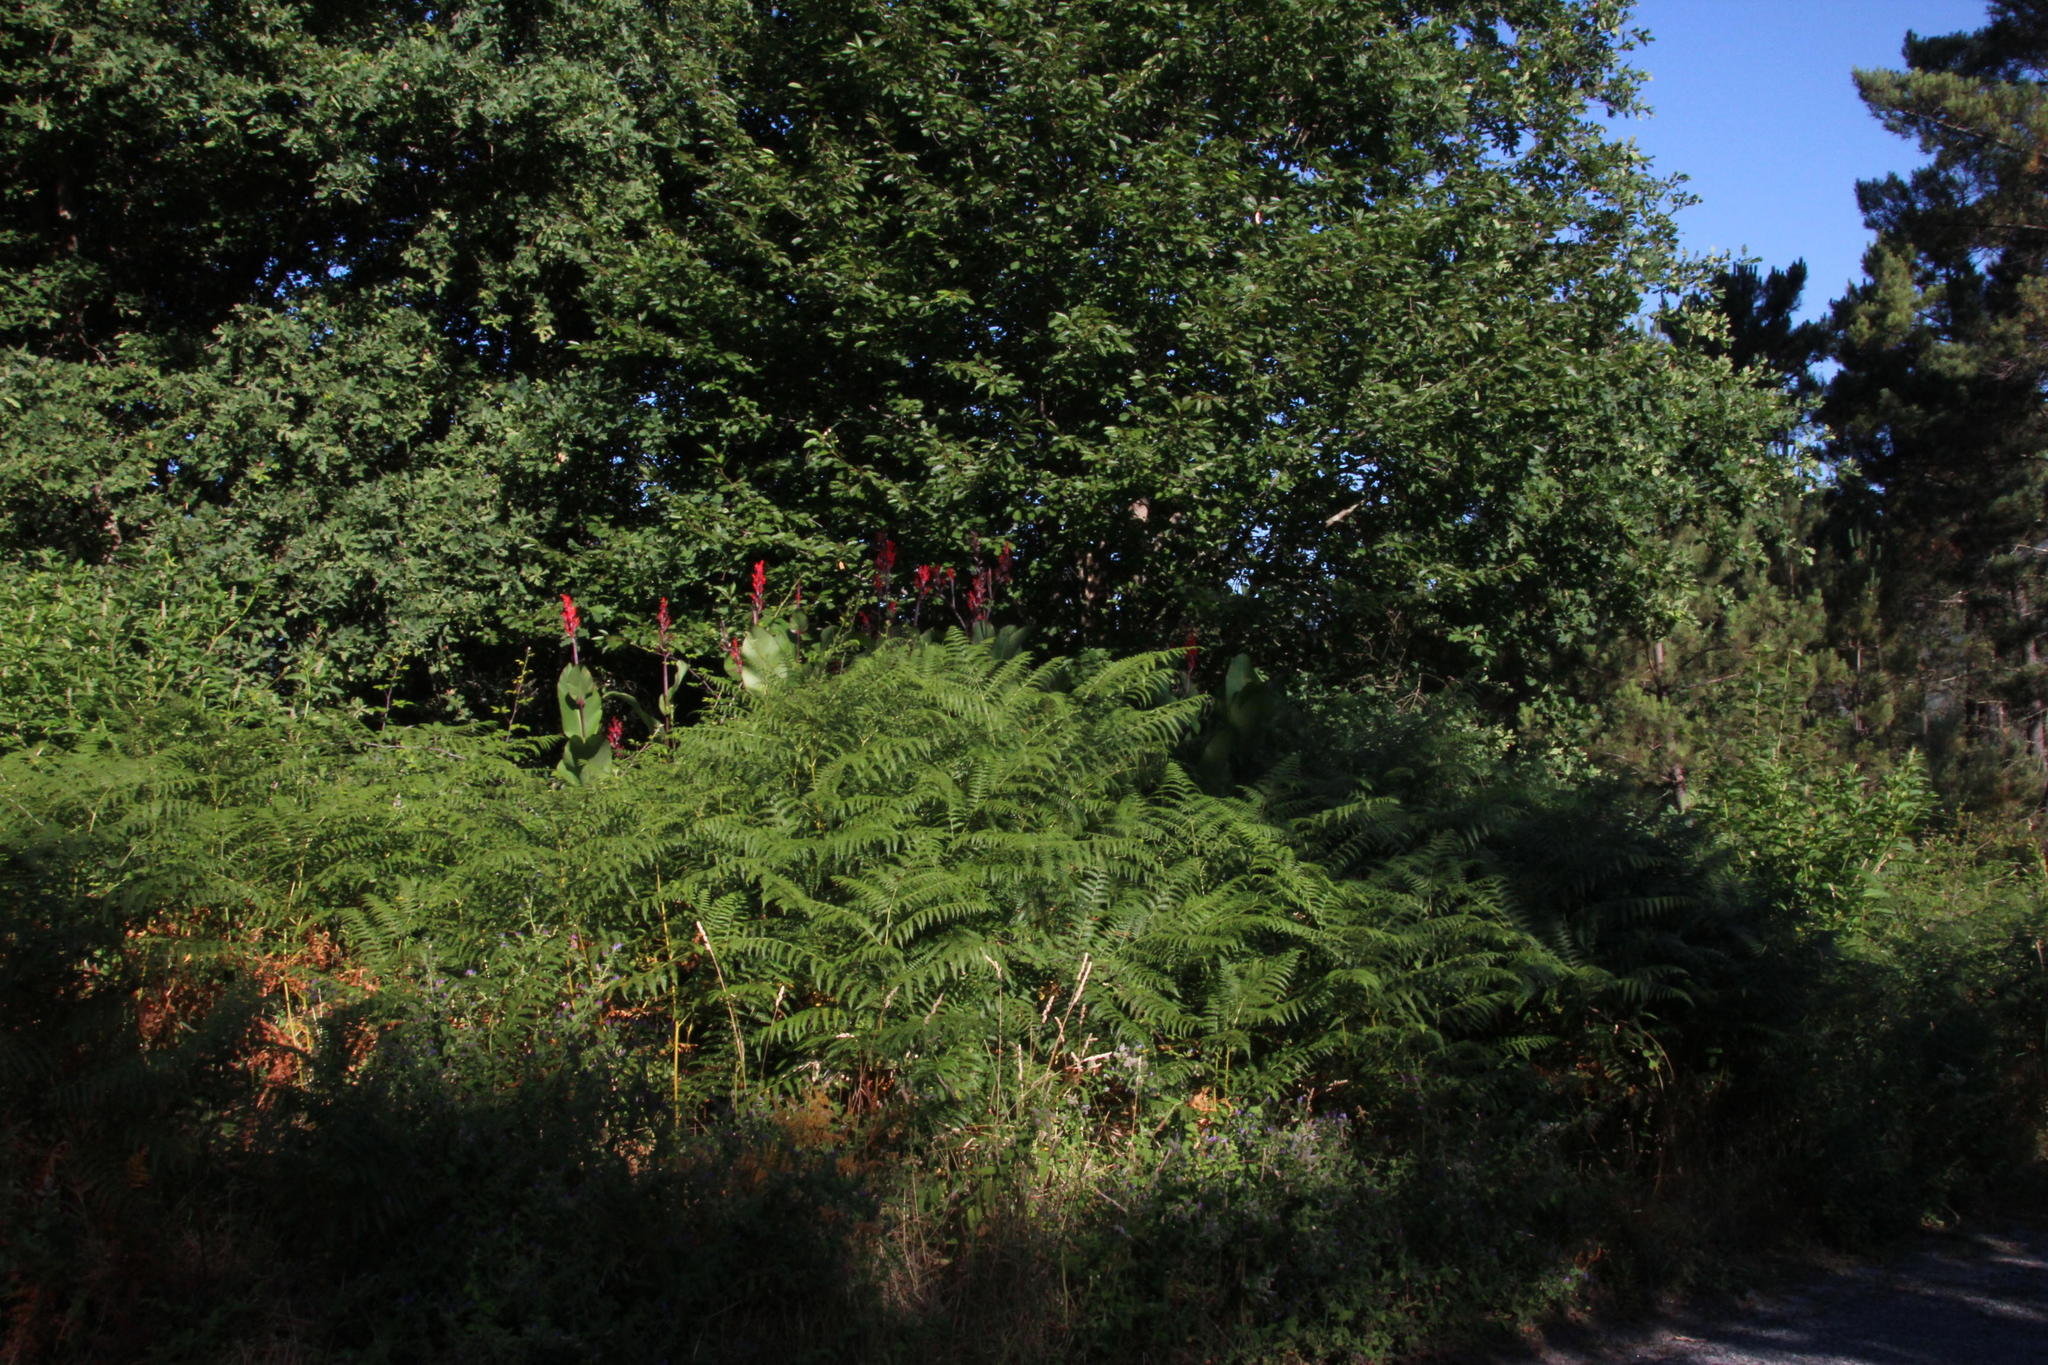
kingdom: Plantae
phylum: Tracheophyta
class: Liliopsida
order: Zingiberales
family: Cannaceae
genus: Canna
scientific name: Canna indica
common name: Indian shot
